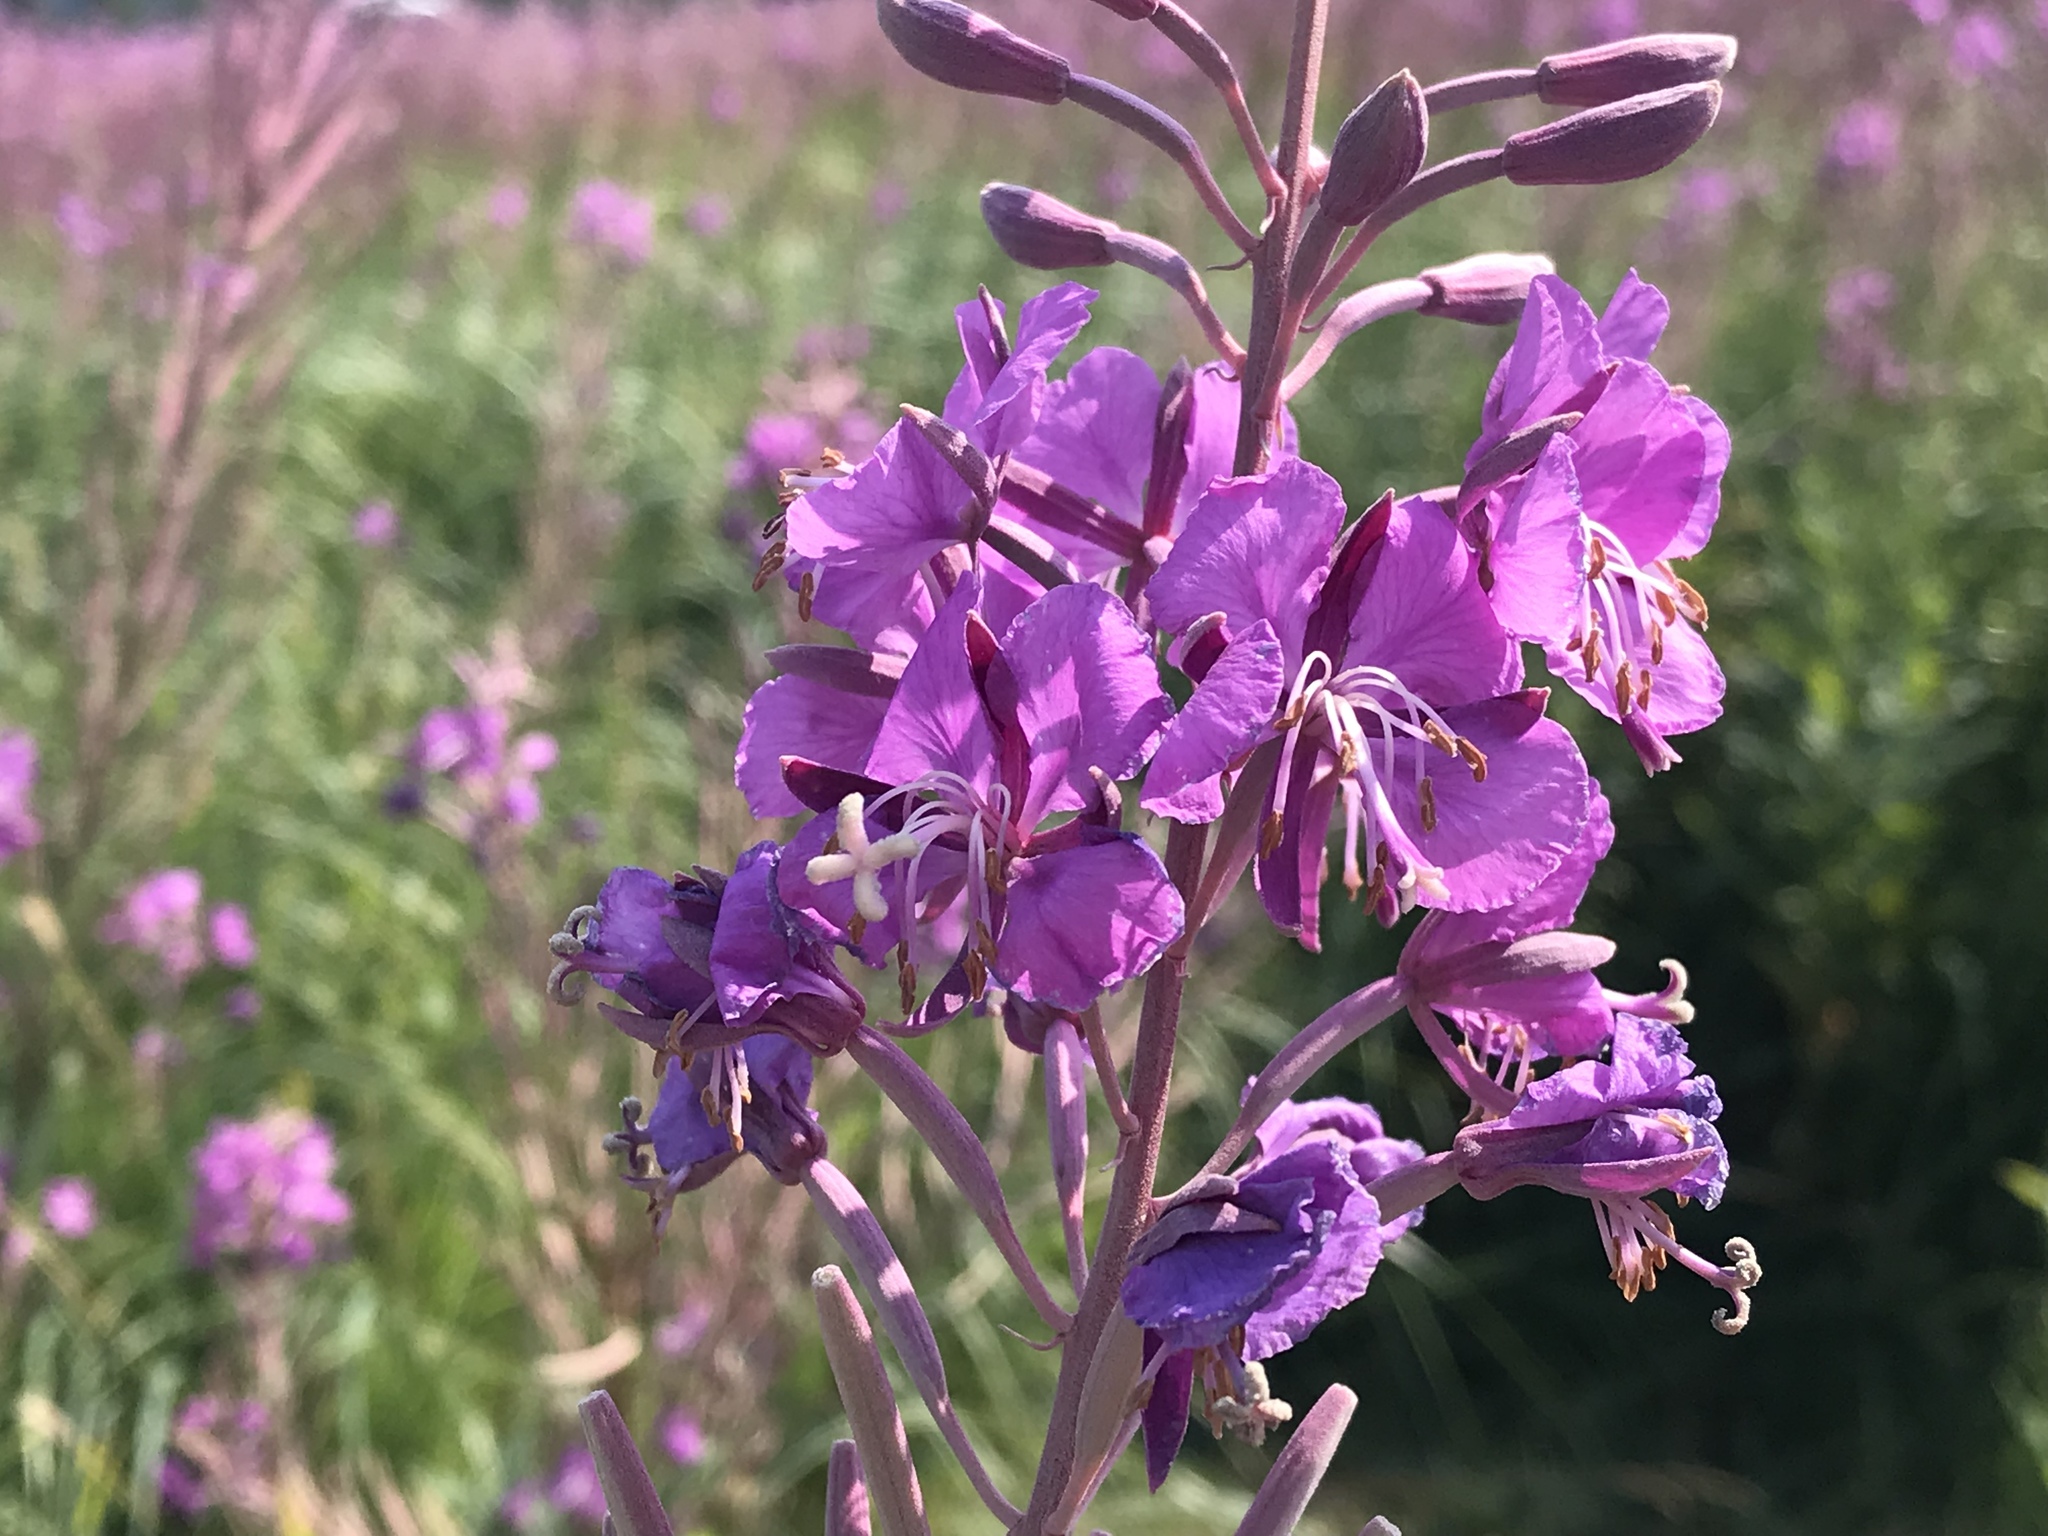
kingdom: Plantae
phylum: Tracheophyta
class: Magnoliopsida
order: Myrtales
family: Onagraceae
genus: Chamaenerion
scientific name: Chamaenerion angustifolium
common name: Fireweed
